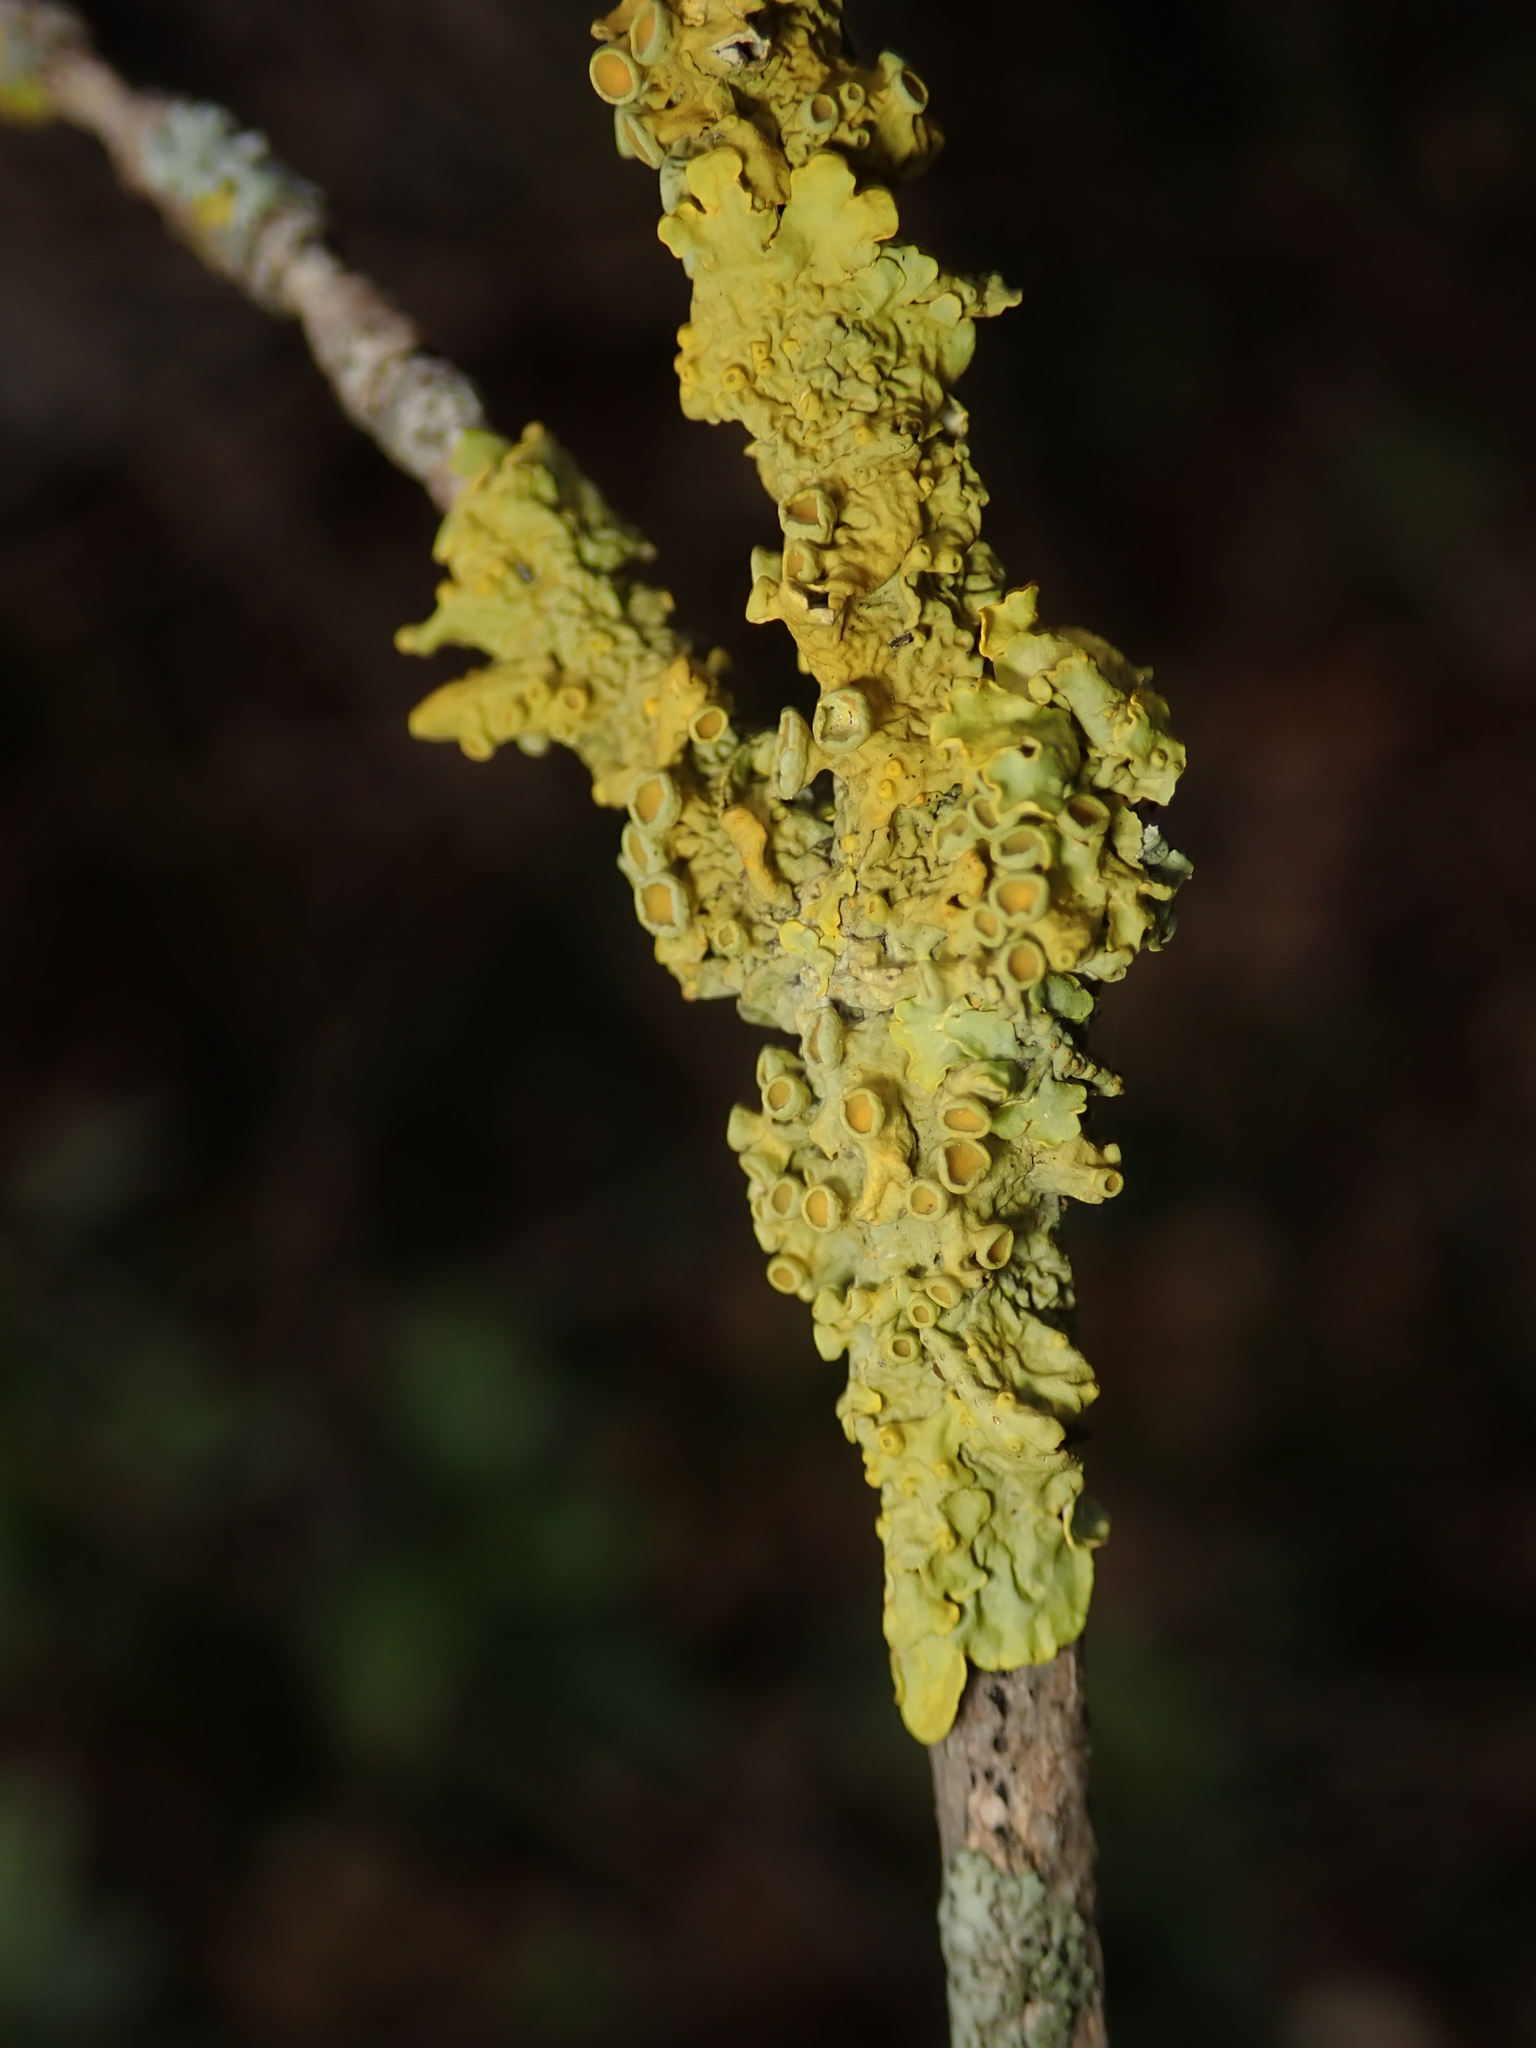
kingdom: Fungi
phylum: Ascomycota
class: Lecanoromycetes
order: Teloschistales
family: Teloschistaceae
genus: Xanthoria
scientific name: Xanthoria parietina
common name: Common orange lichen
